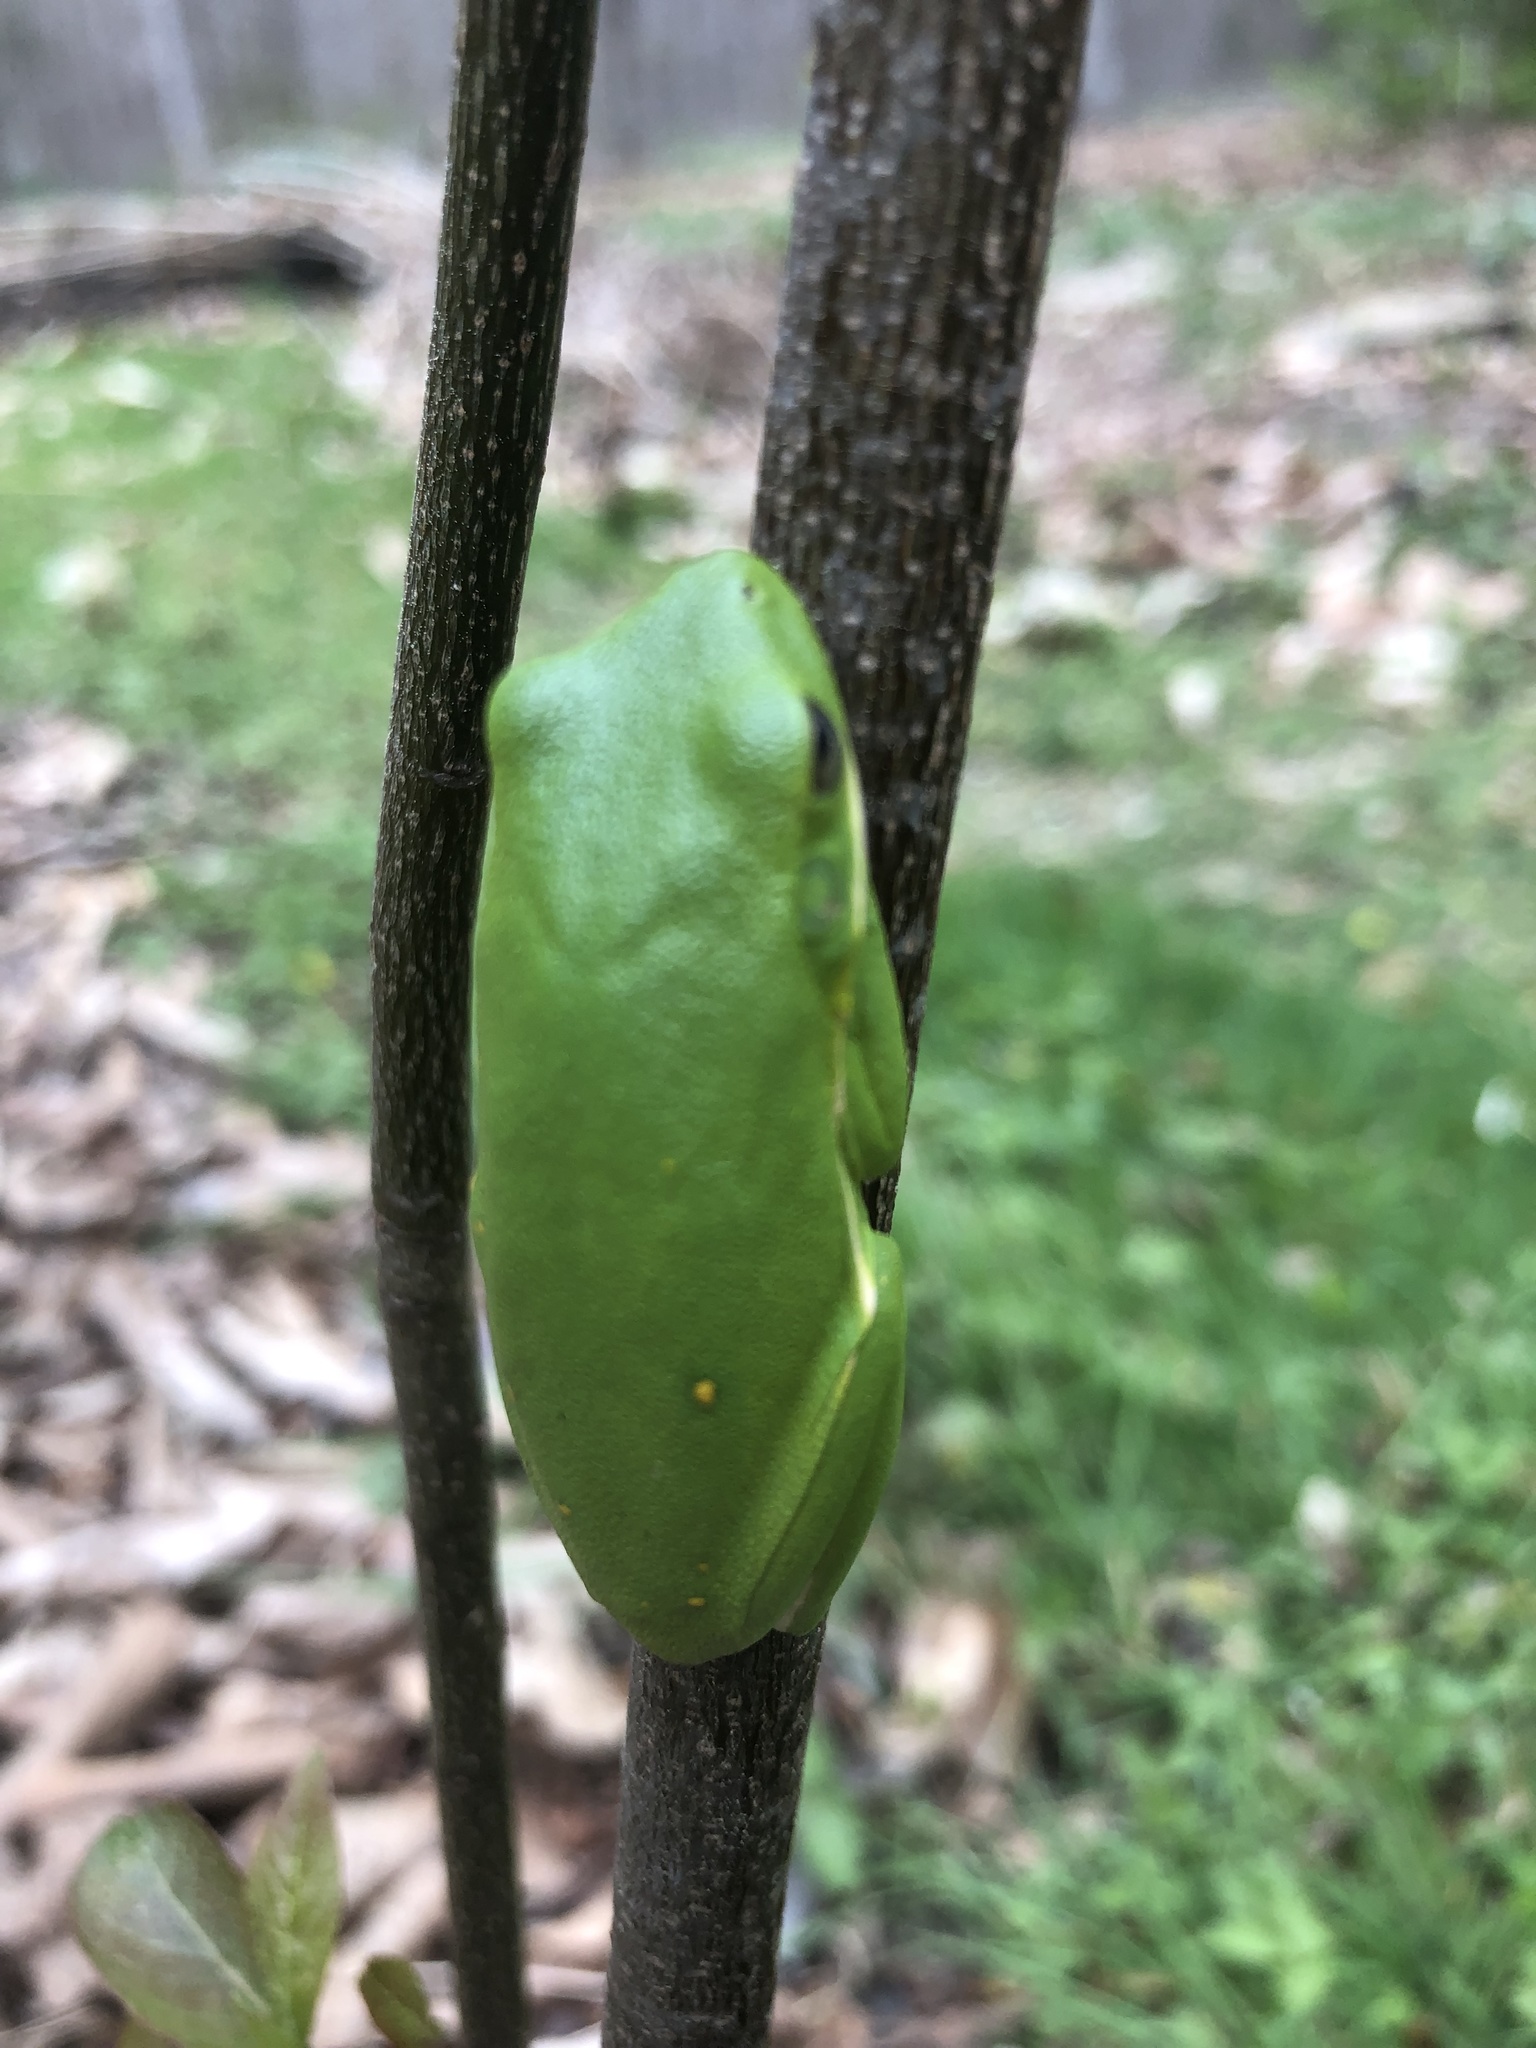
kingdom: Animalia
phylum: Chordata
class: Amphibia
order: Anura
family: Hylidae
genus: Dryophytes
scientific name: Dryophytes cinereus
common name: Green treefrog
